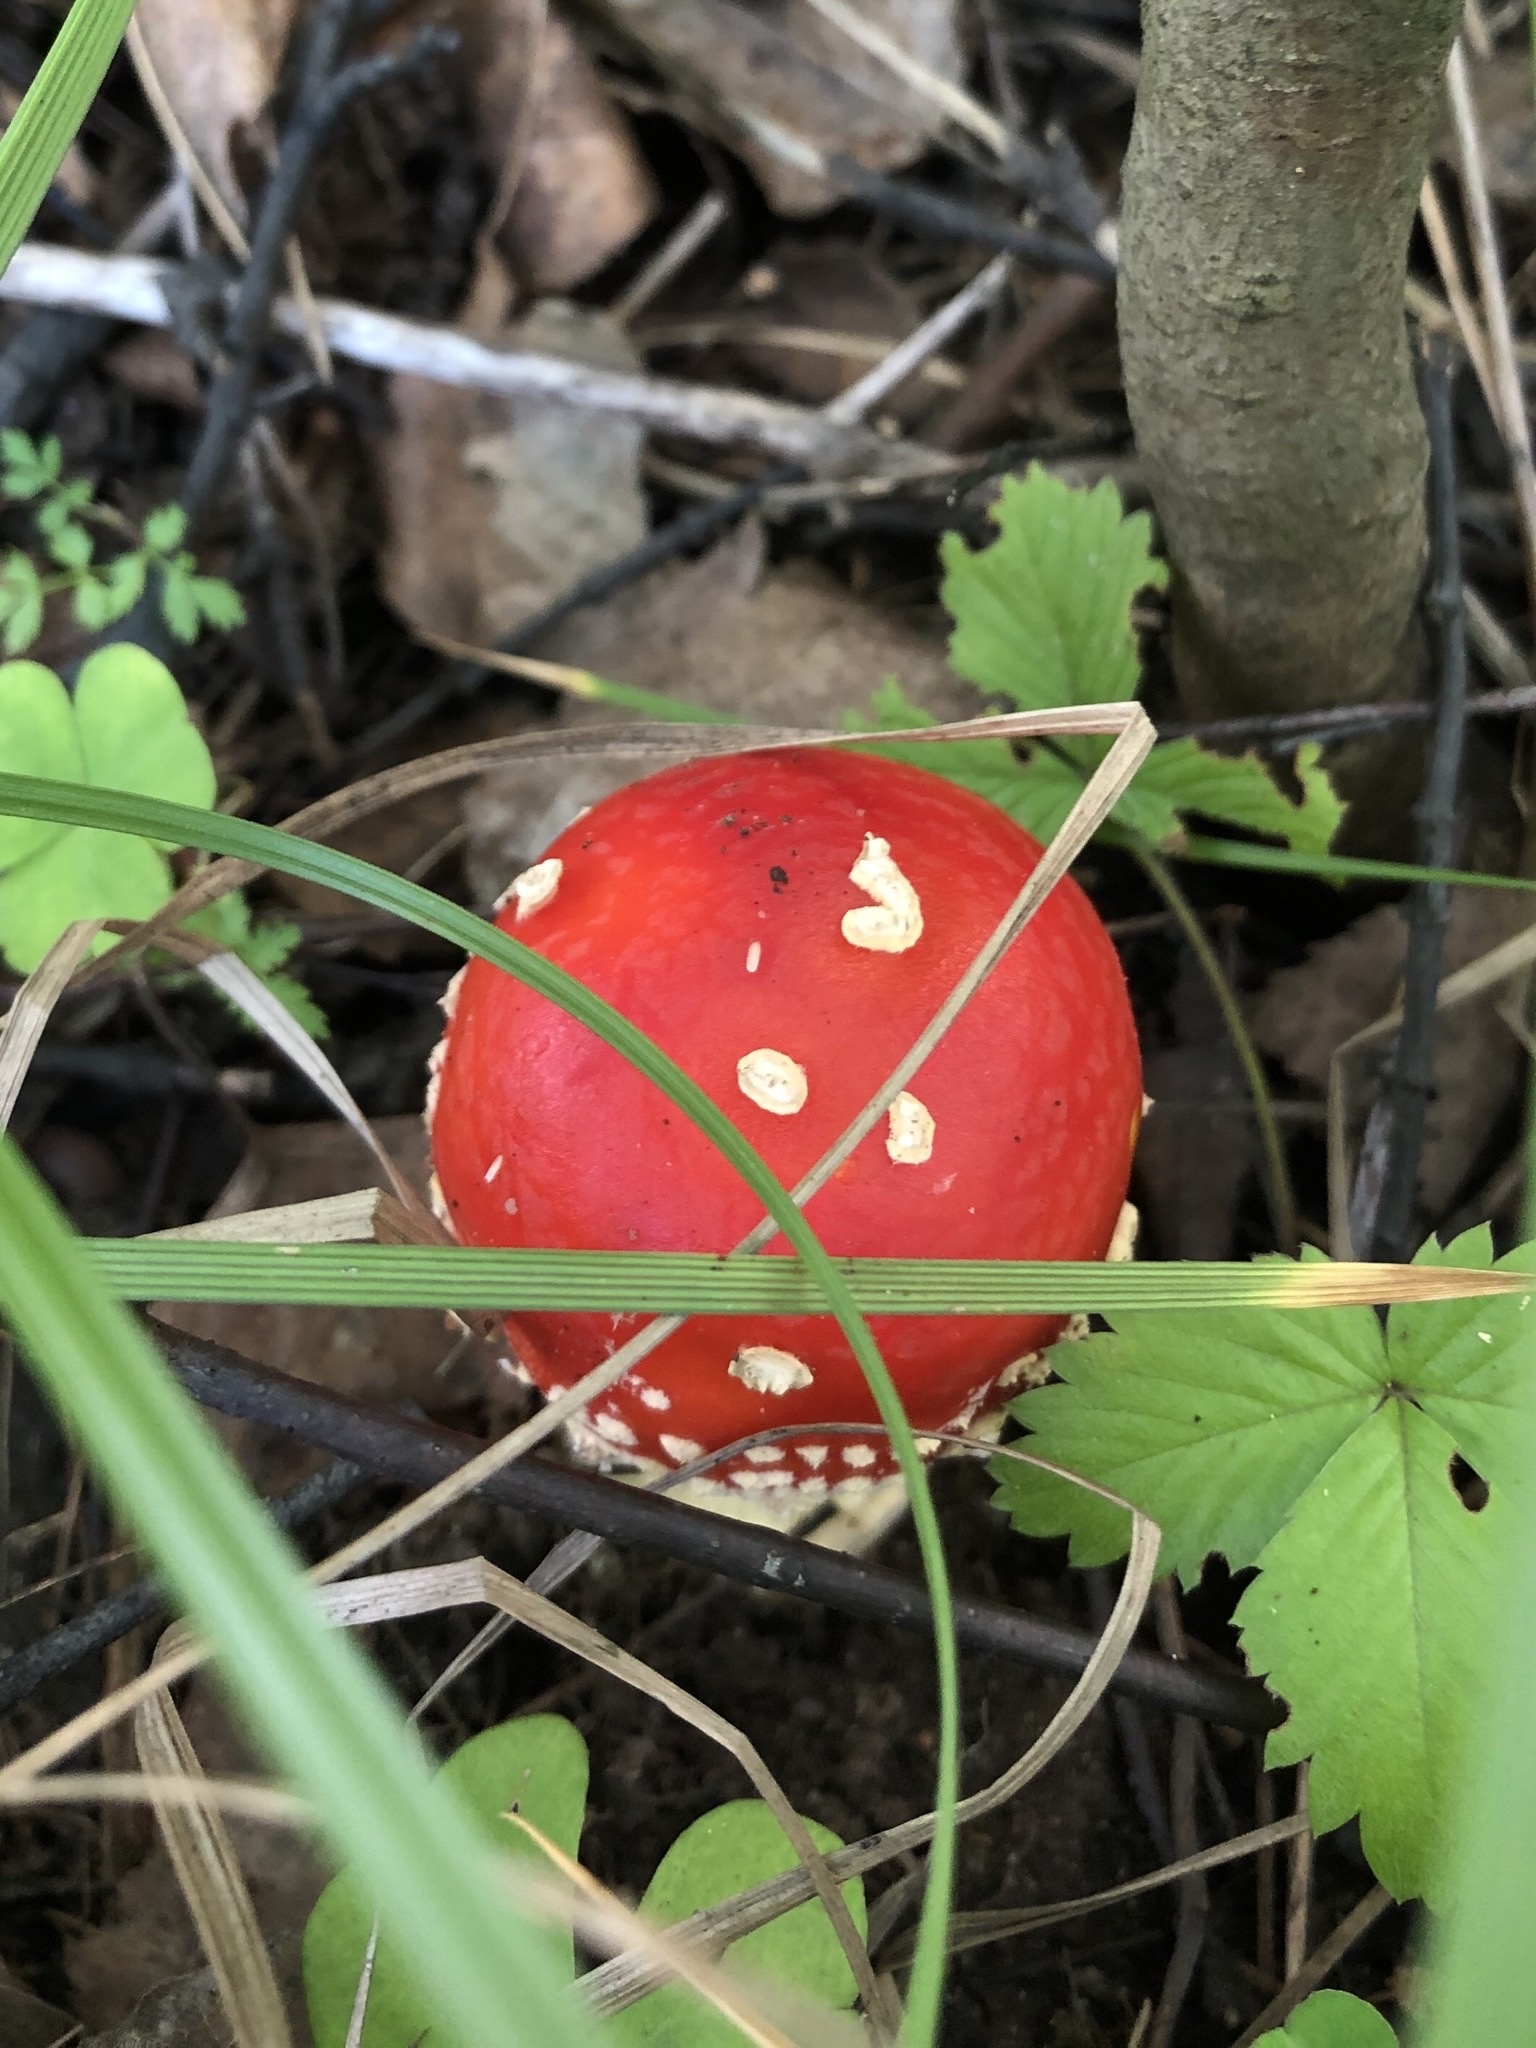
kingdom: Fungi
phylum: Basidiomycota
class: Agaricomycetes
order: Agaricales
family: Amanitaceae
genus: Amanita
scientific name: Amanita muscaria
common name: Fly agaric
